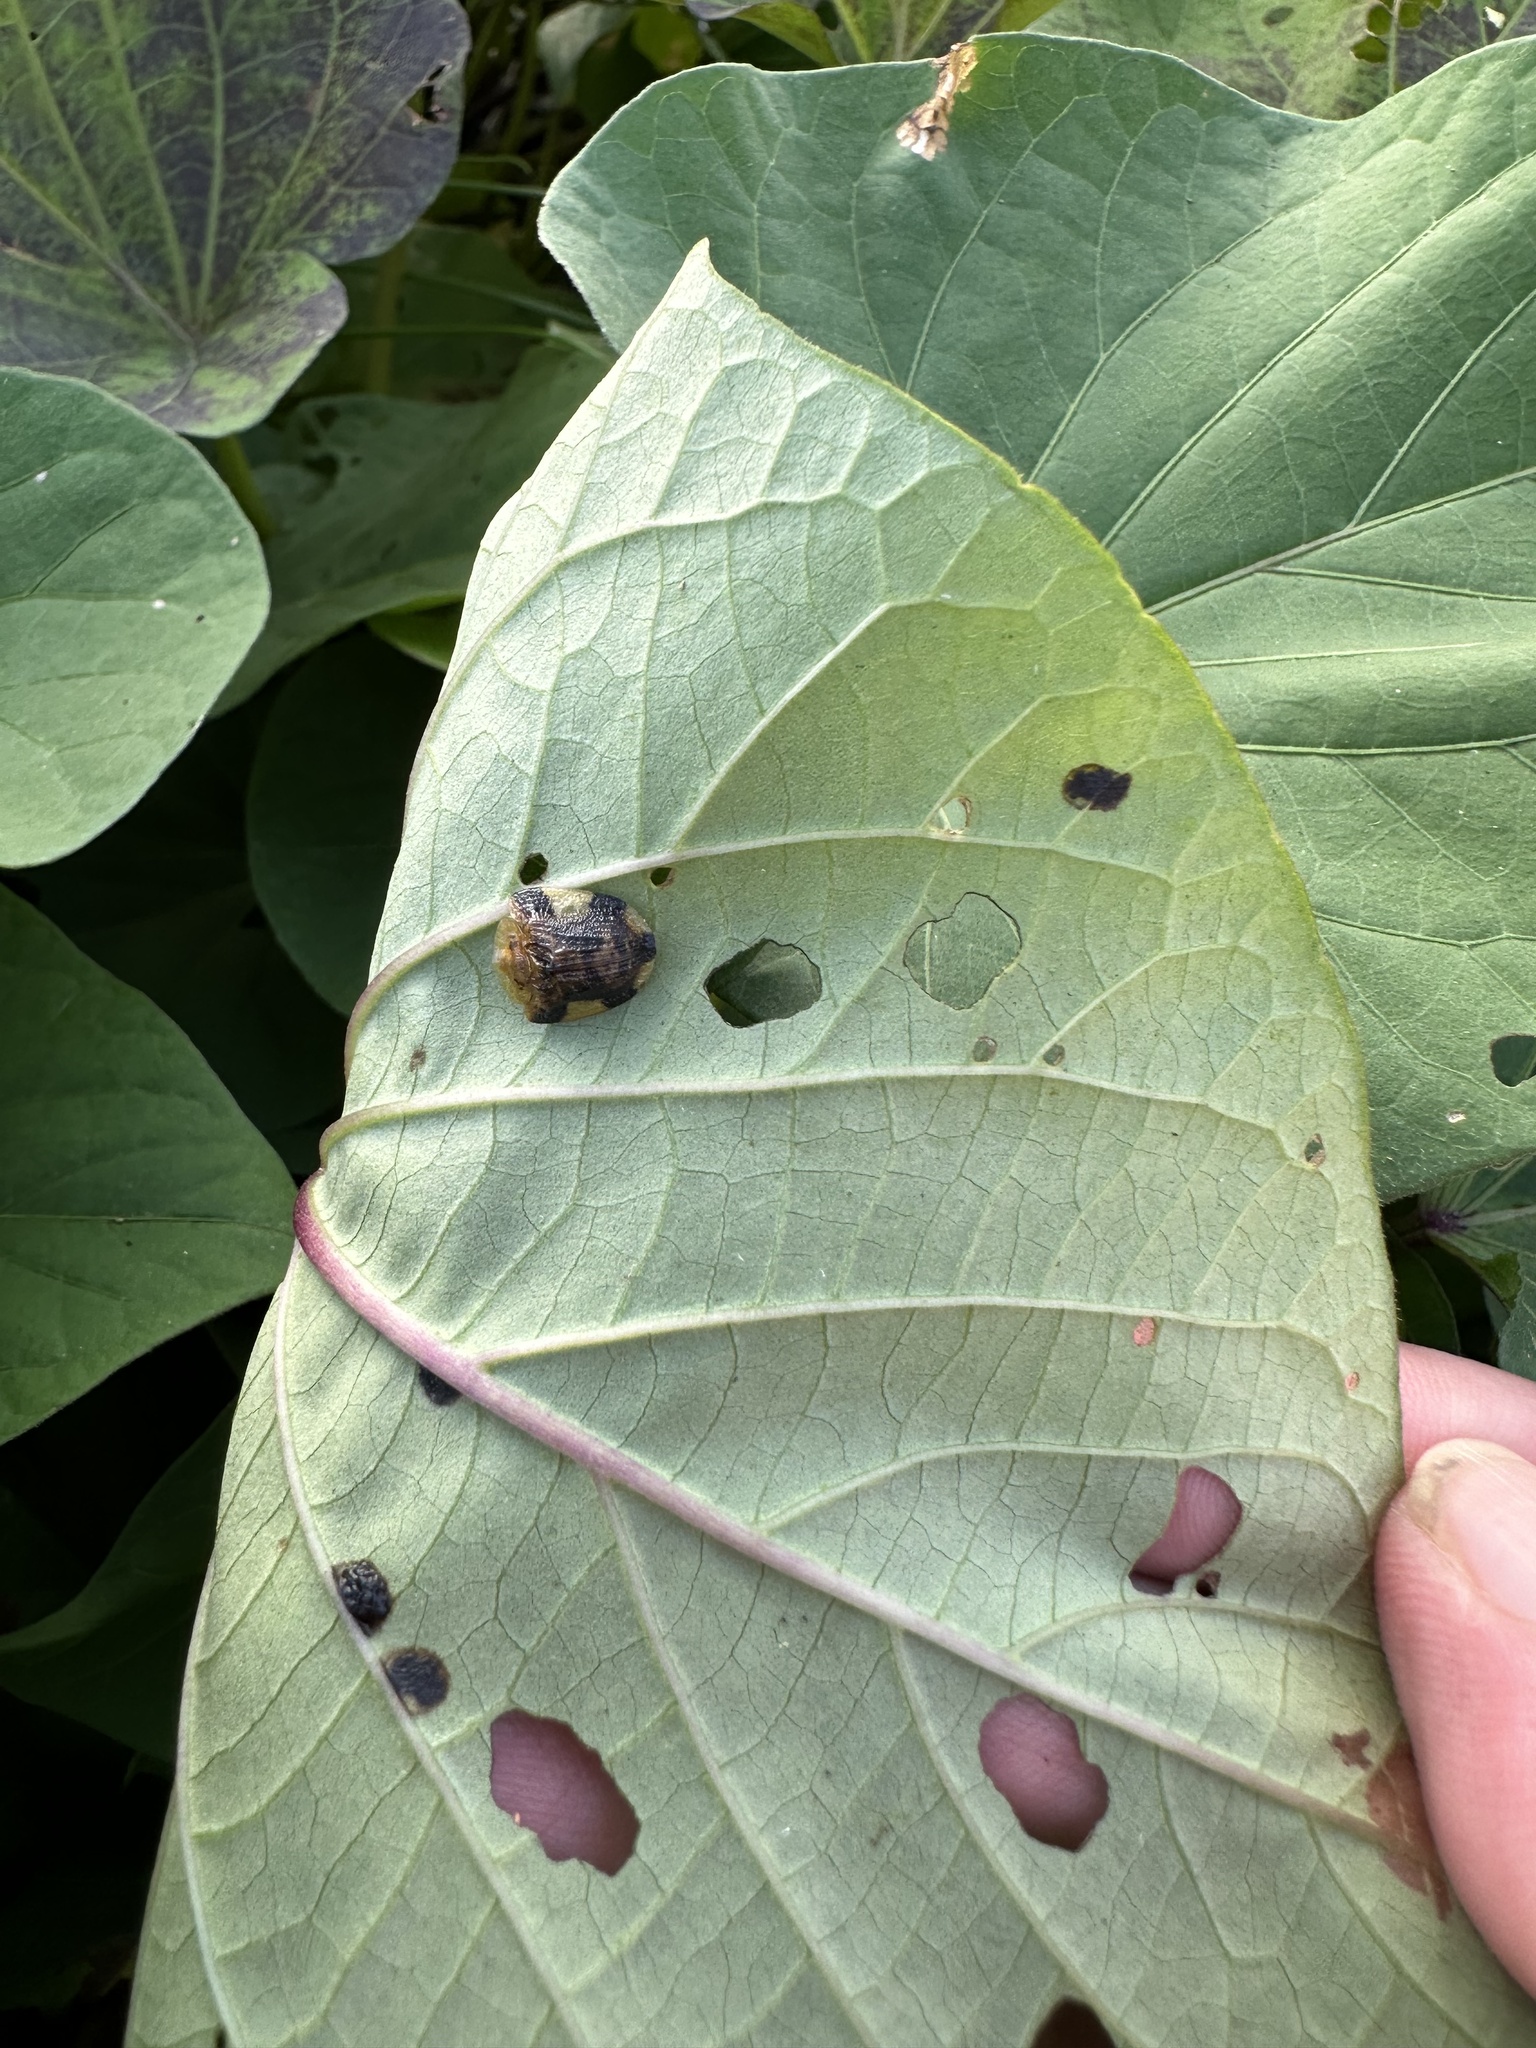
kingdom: Animalia
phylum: Arthropoda
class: Insecta
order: Coleoptera
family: Chrysomelidae
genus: Laccoptera
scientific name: Laccoptera nepalensis
